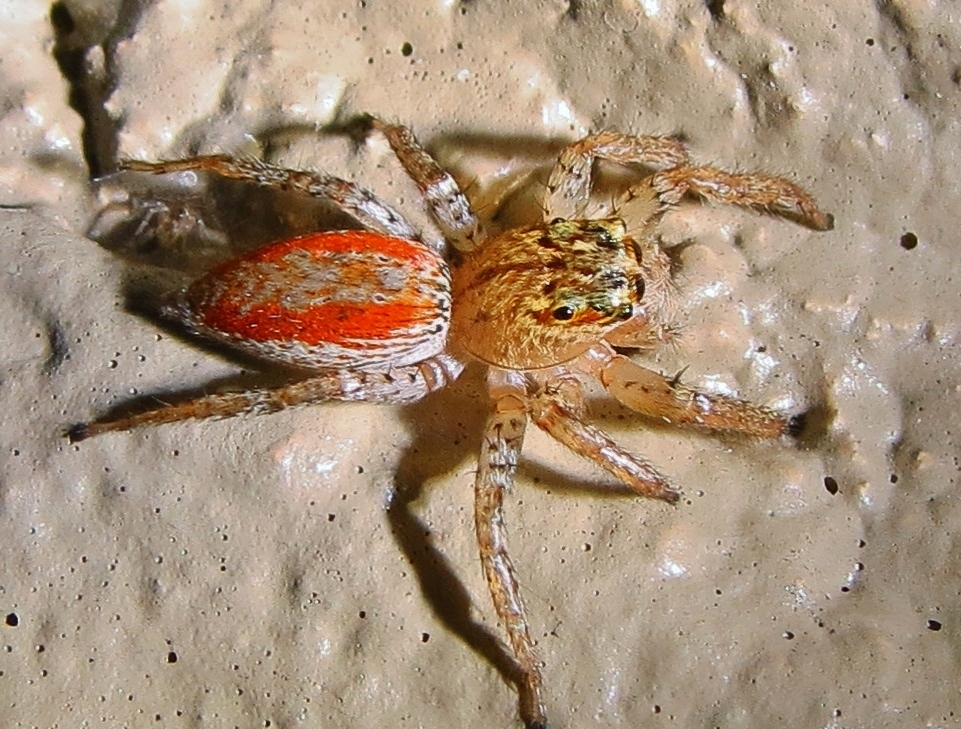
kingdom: Animalia
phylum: Arthropoda
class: Arachnida
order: Araneae
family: Salticidae
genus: Maevia
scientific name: Maevia inclemens
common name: Dimorphic jumper
